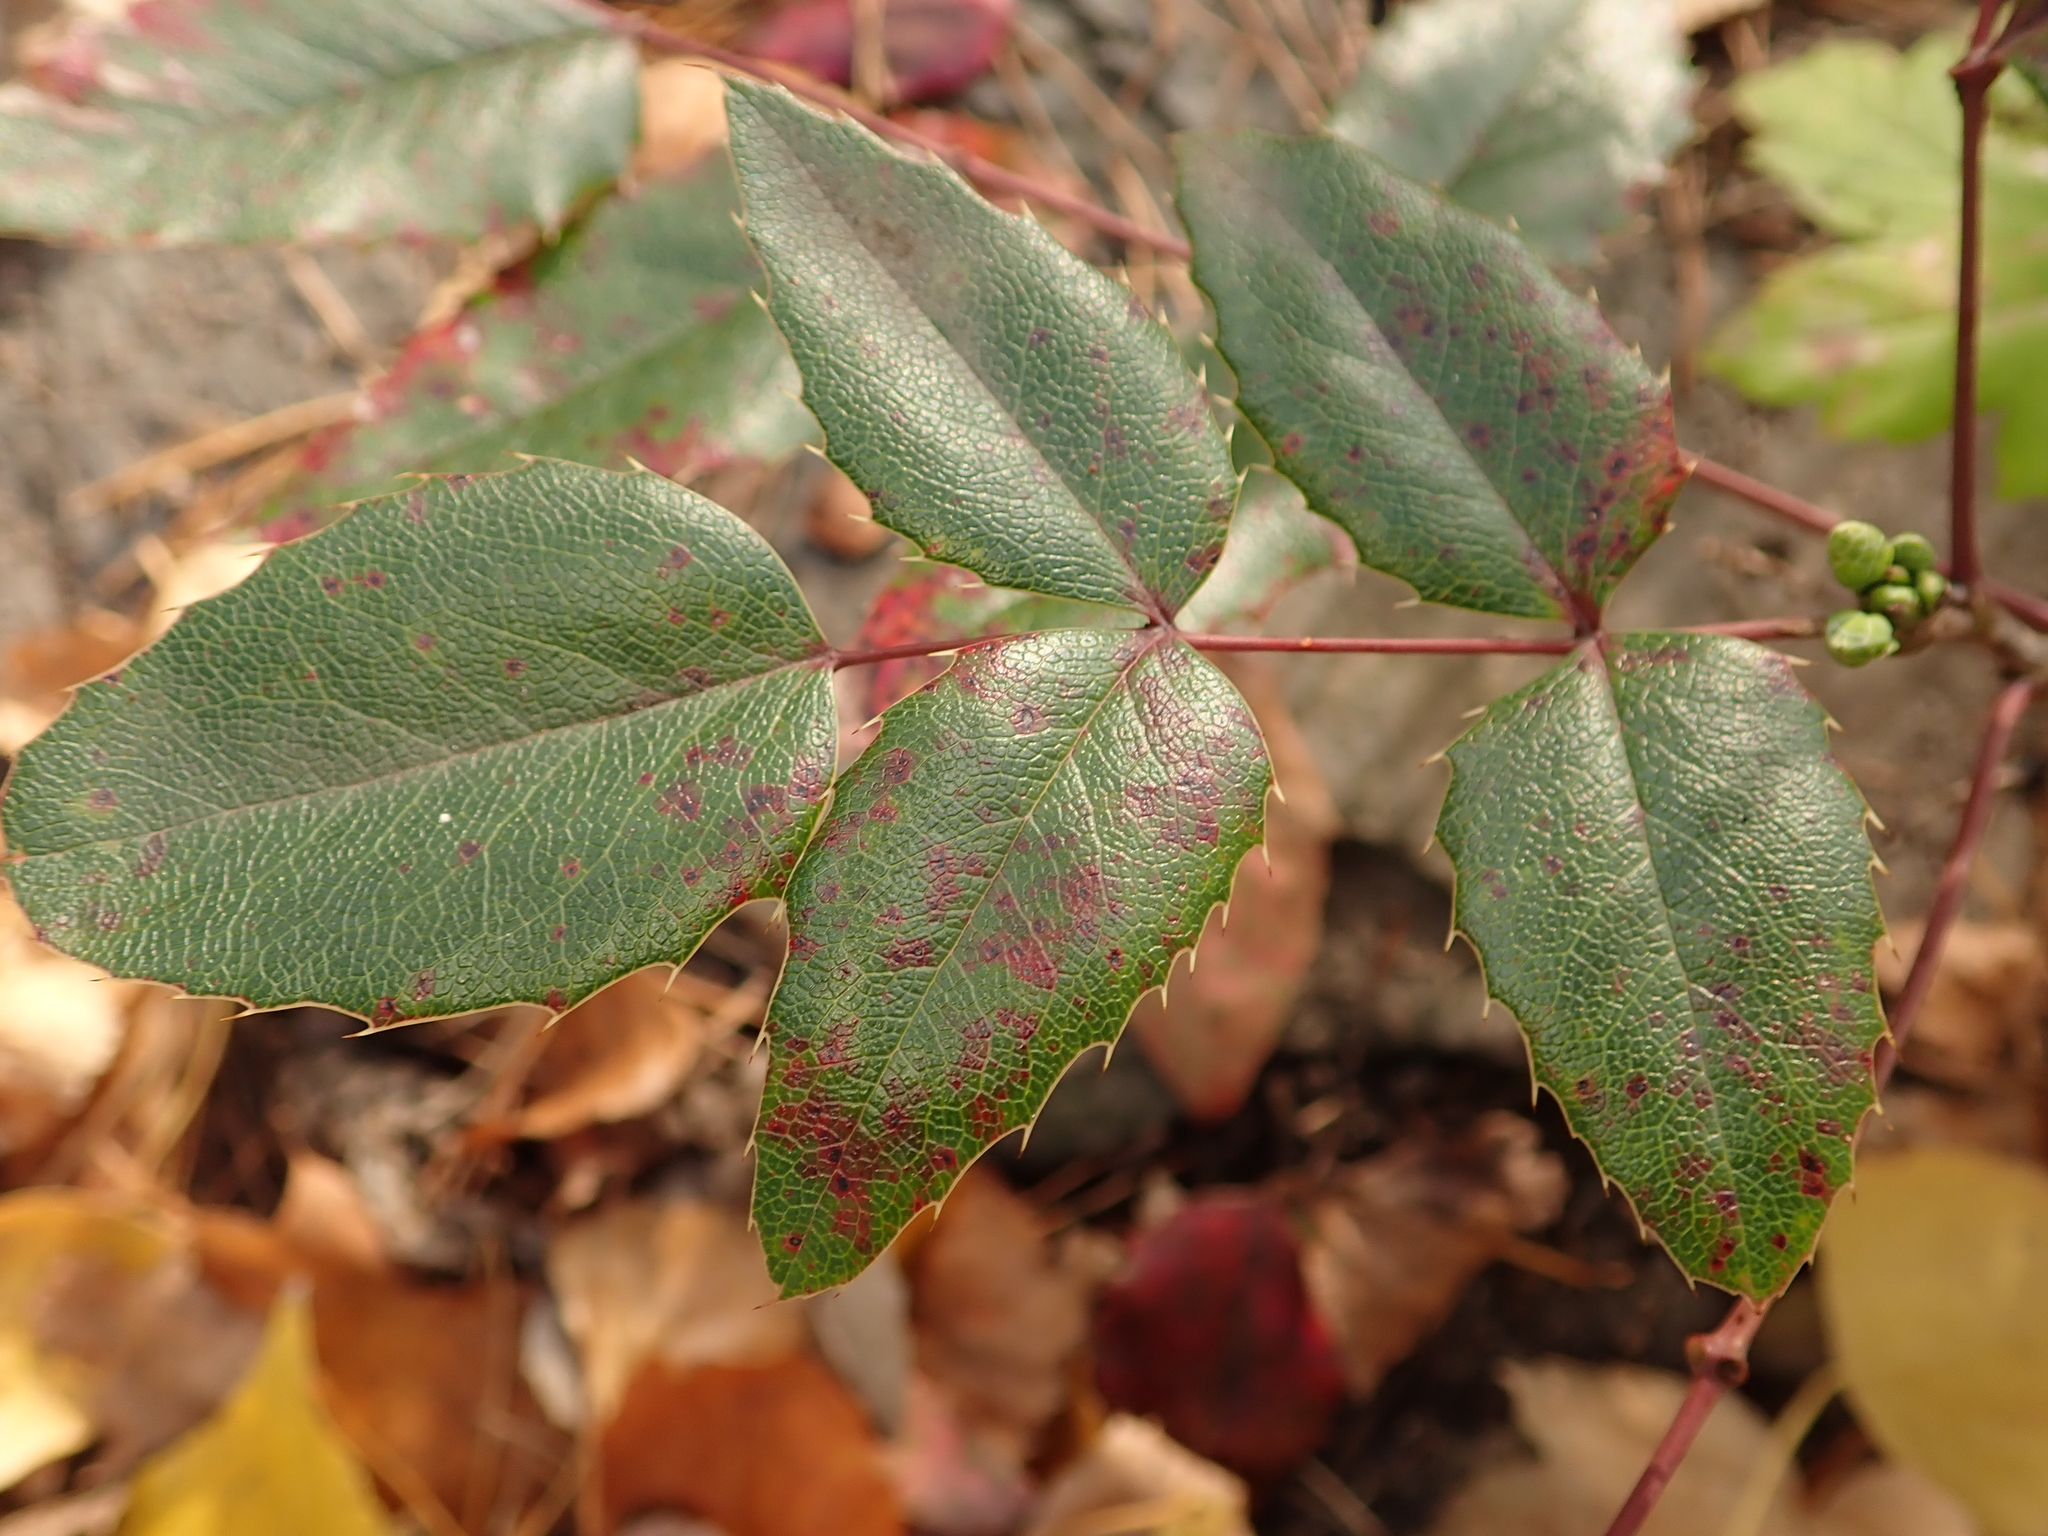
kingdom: Plantae
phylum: Tracheophyta
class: Magnoliopsida
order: Ranunculales
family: Berberidaceae
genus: Mahonia
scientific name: Mahonia aquifolium
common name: Oregon-grape
